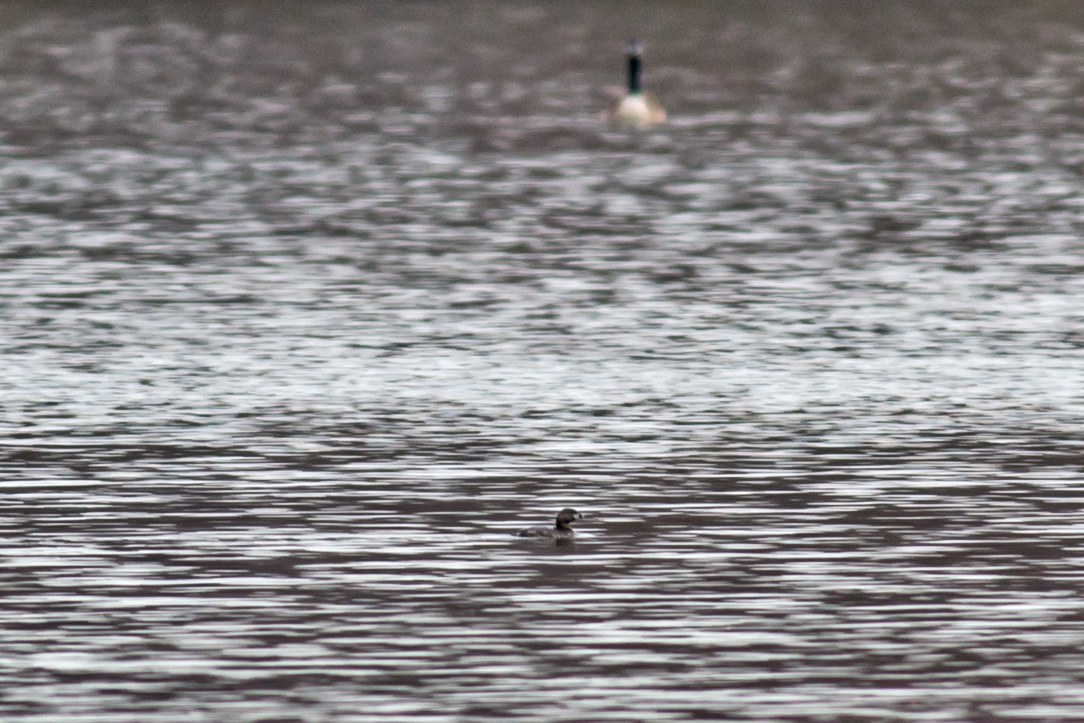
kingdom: Animalia
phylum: Chordata
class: Aves
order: Podicipediformes
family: Podicipedidae
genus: Podilymbus
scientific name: Podilymbus podiceps
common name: Pied-billed grebe
